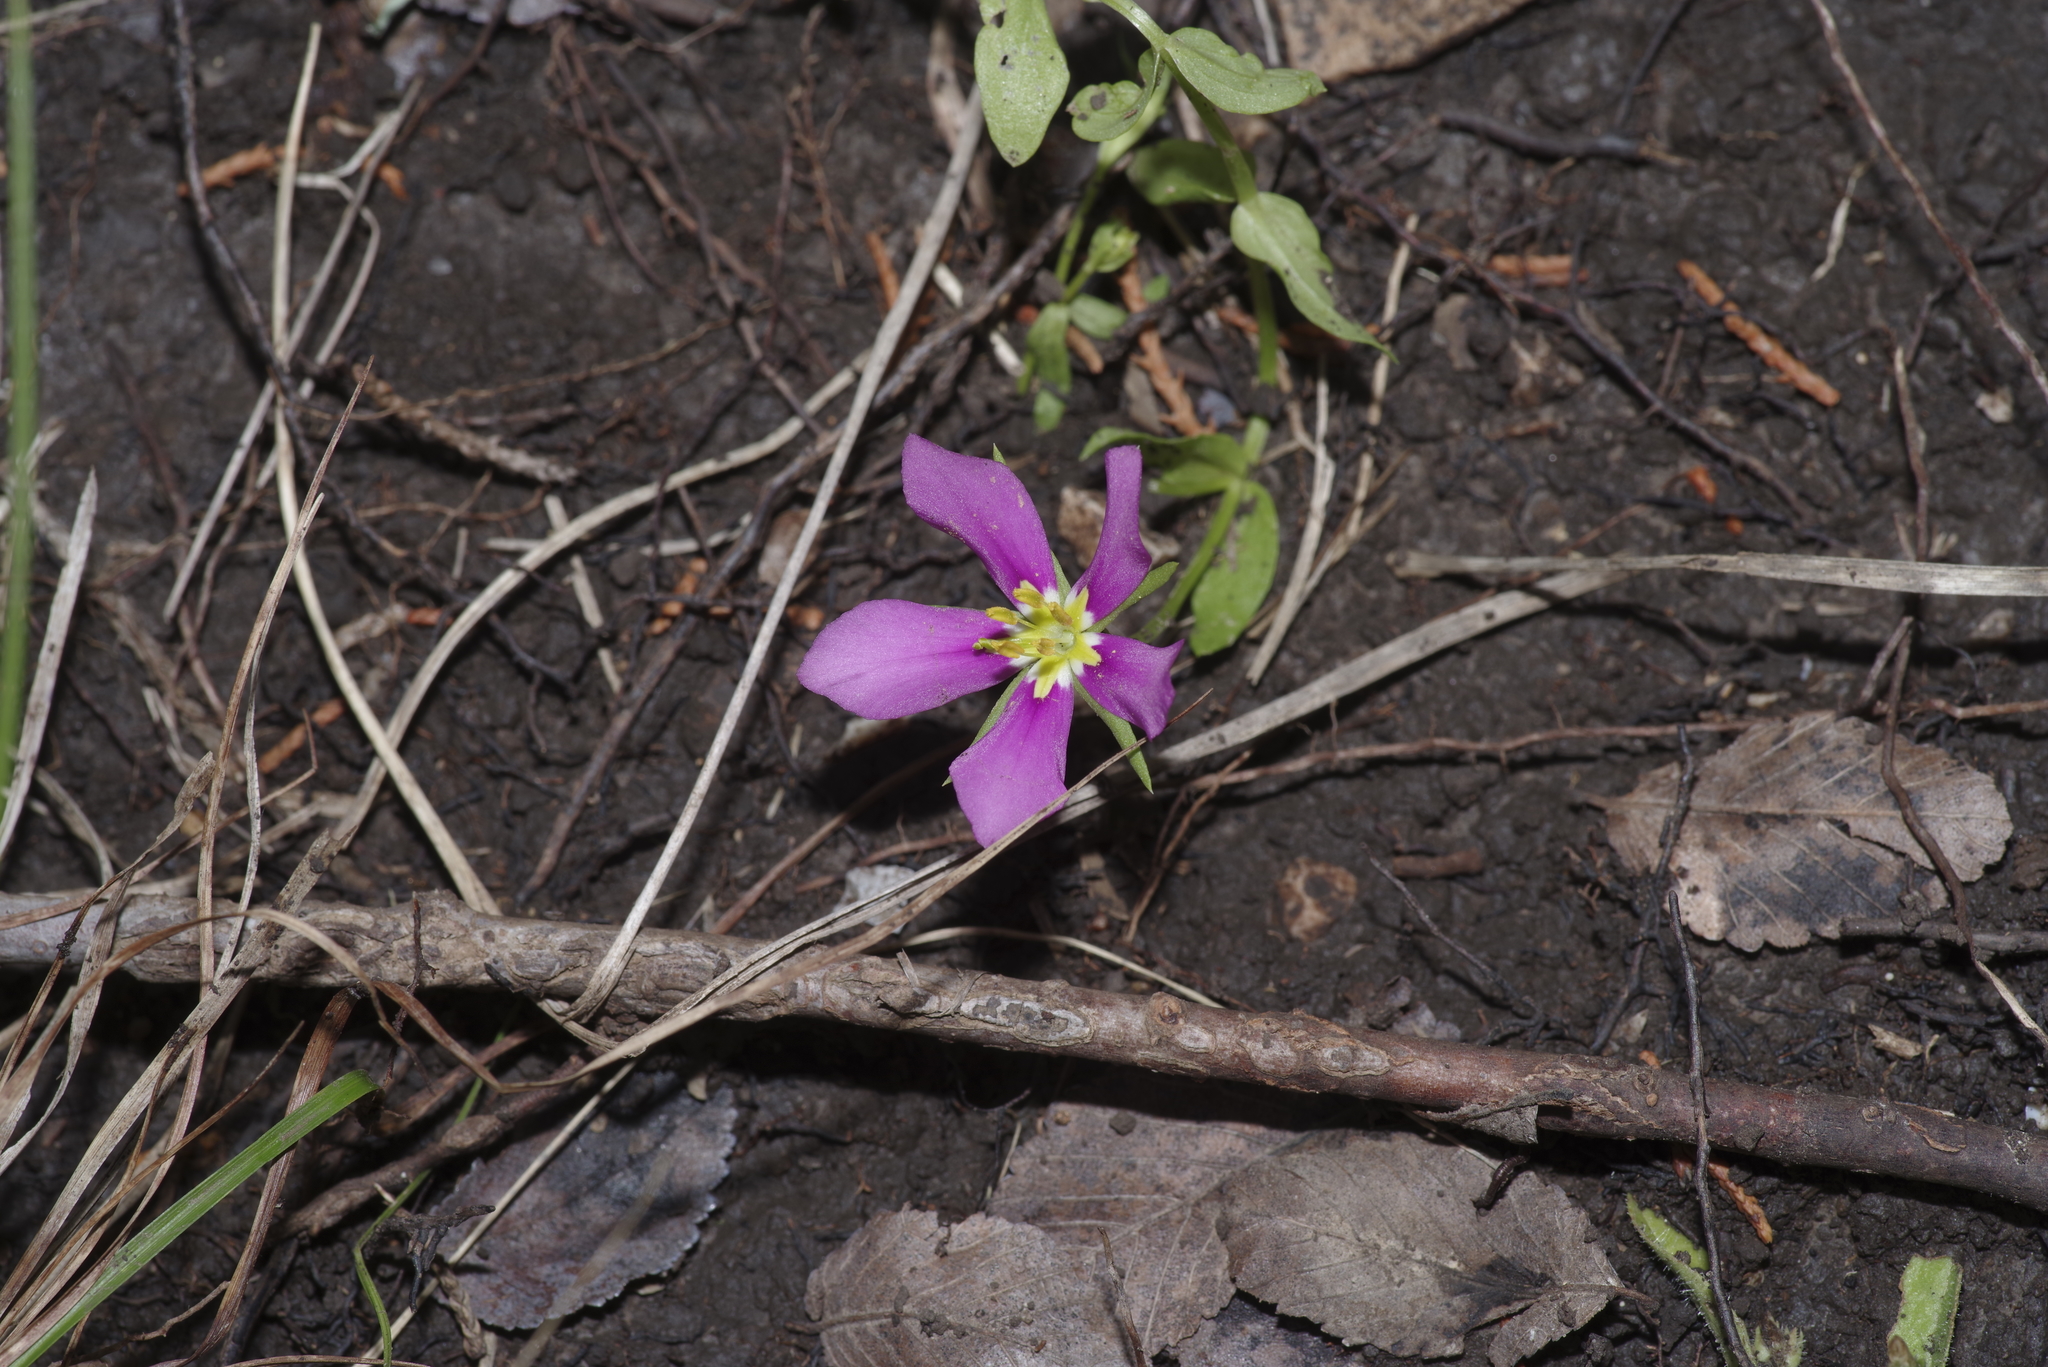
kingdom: Plantae
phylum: Tracheophyta
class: Magnoliopsida
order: Gentianales
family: Gentianaceae
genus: Sabatia
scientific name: Sabatia campestris
